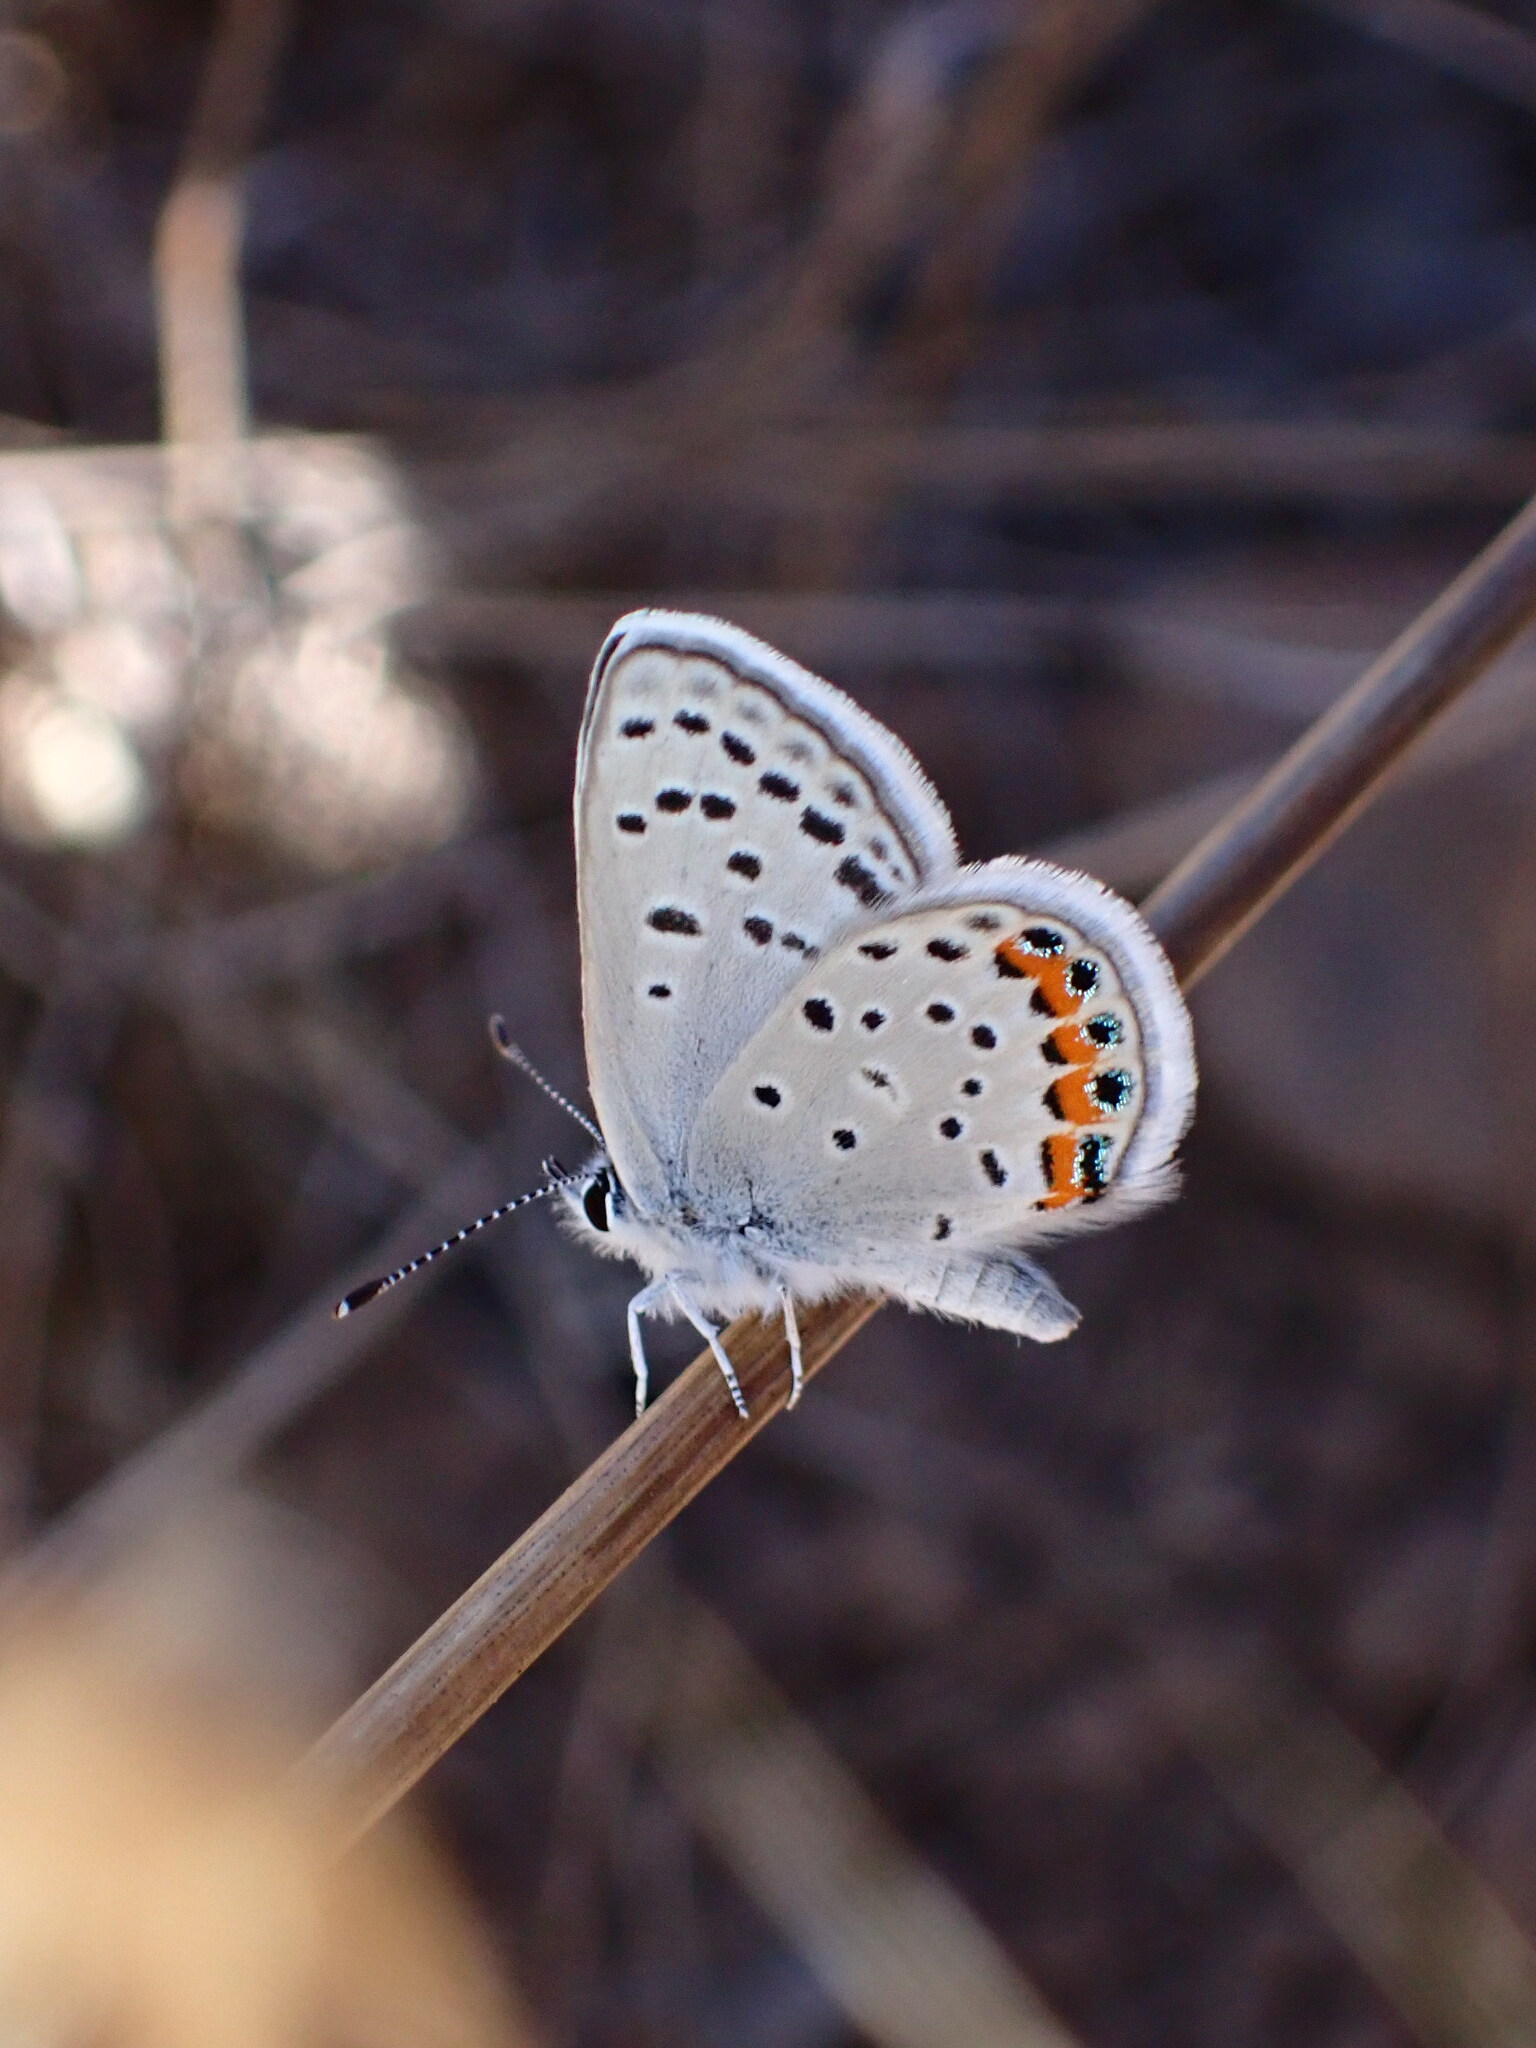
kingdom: Animalia
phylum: Arthropoda
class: Insecta
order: Lepidoptera
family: Lycaenidae
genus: Icaricia
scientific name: Icaricia acmon
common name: Acmon blue
